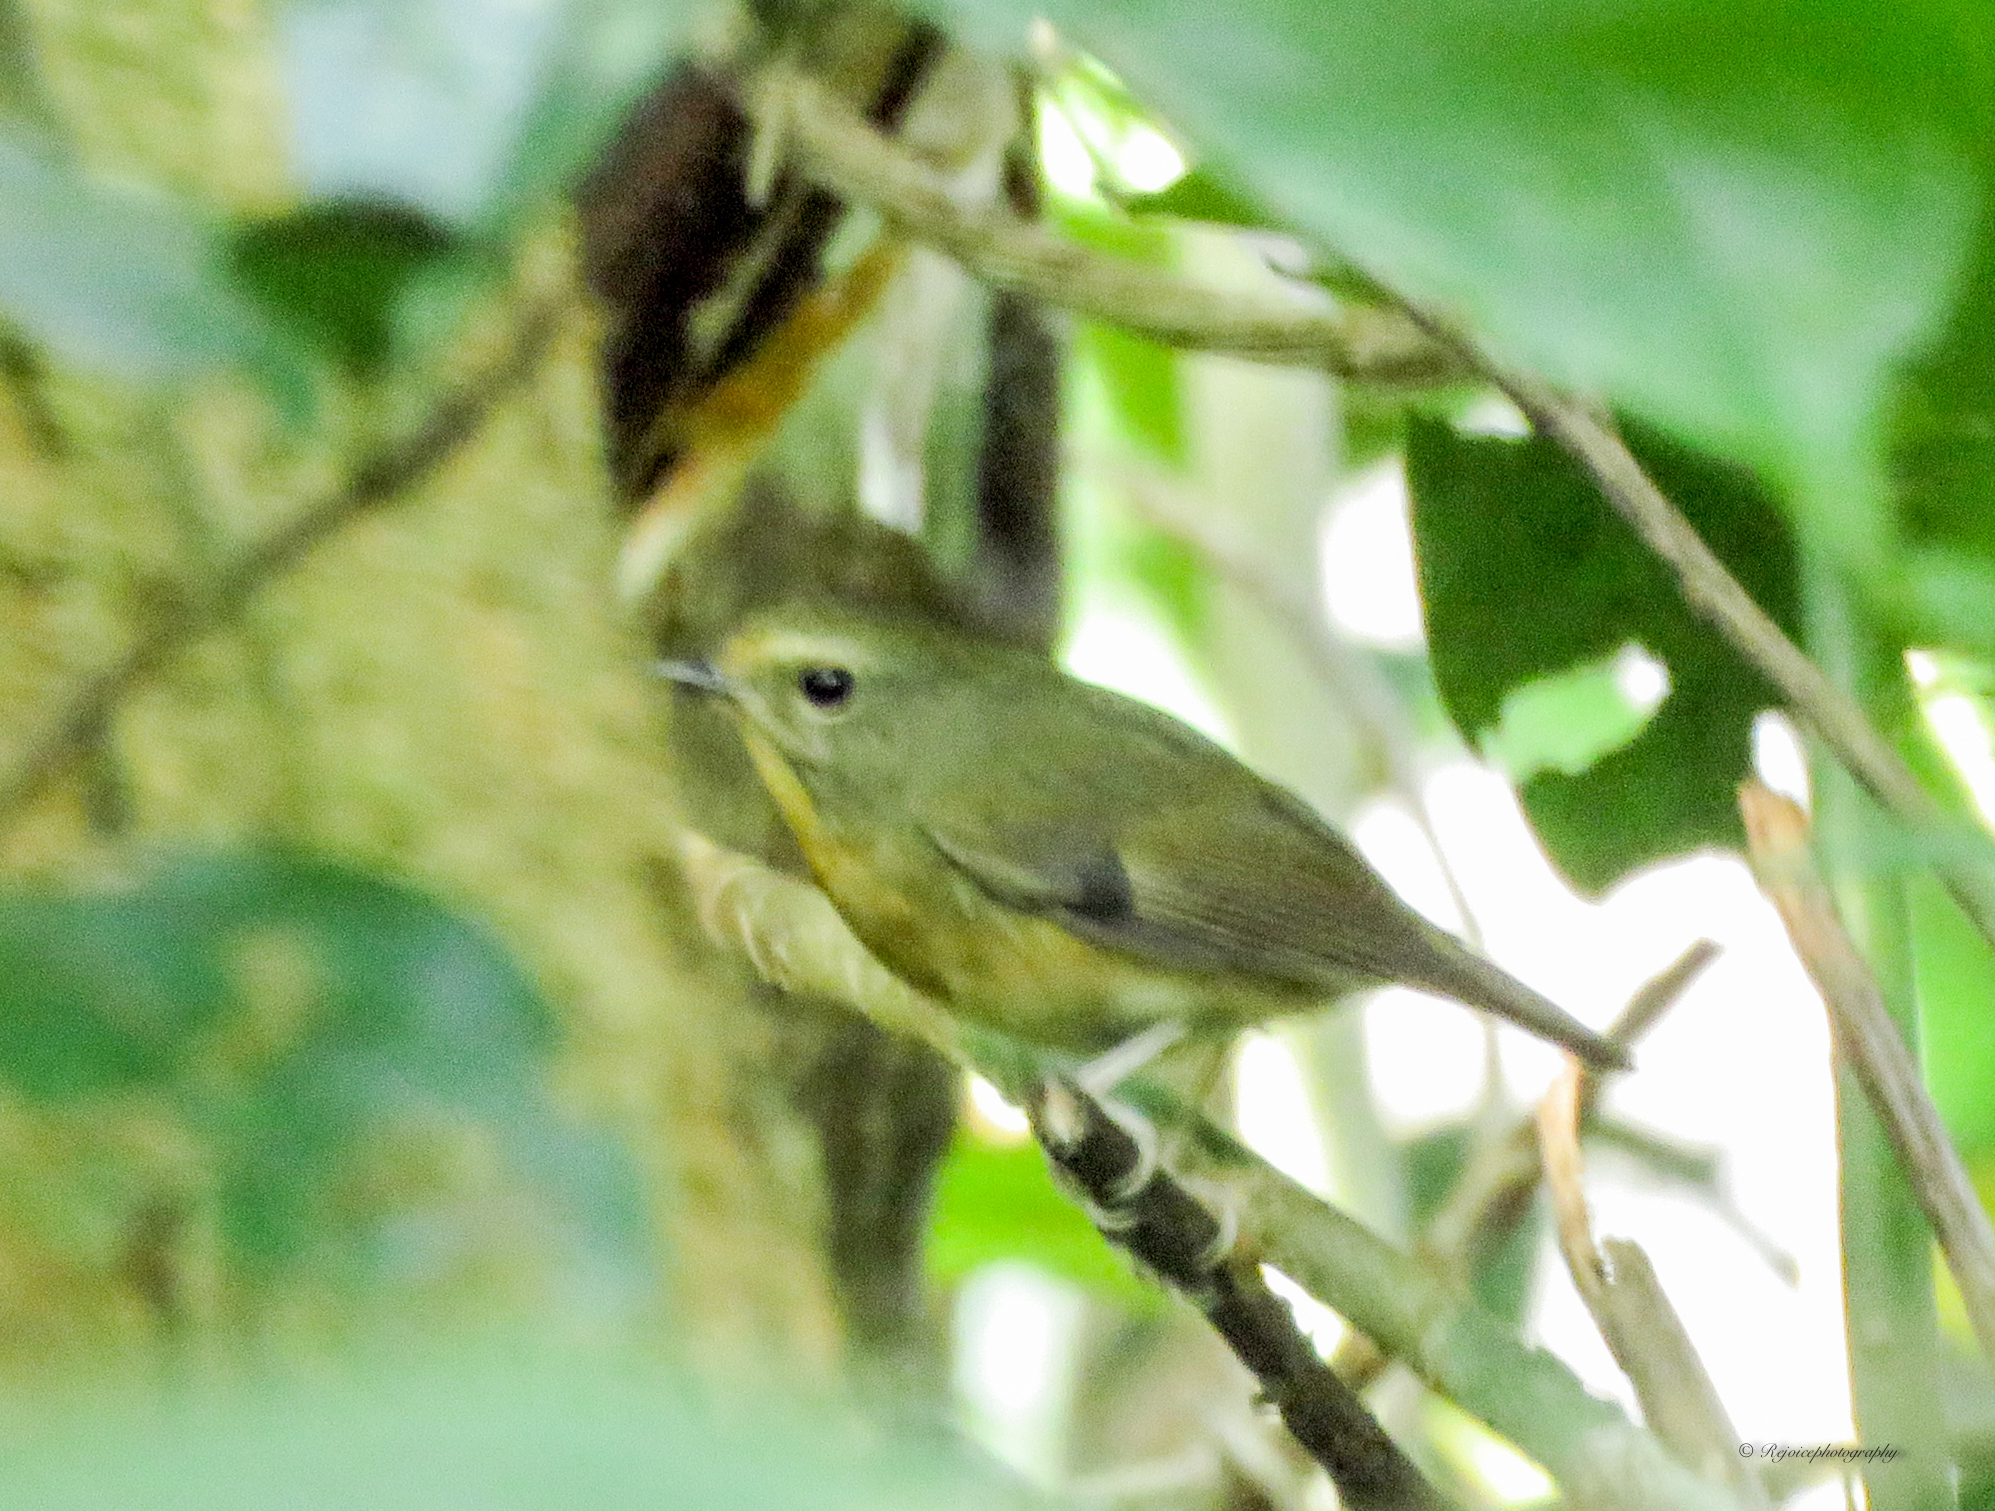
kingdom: Animalia
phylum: Chordata
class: Aves
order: Passeriformes
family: Muscicapidae
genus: Ficedula
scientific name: Ficedula hyperythra
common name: Snowy-browed flycatcher
